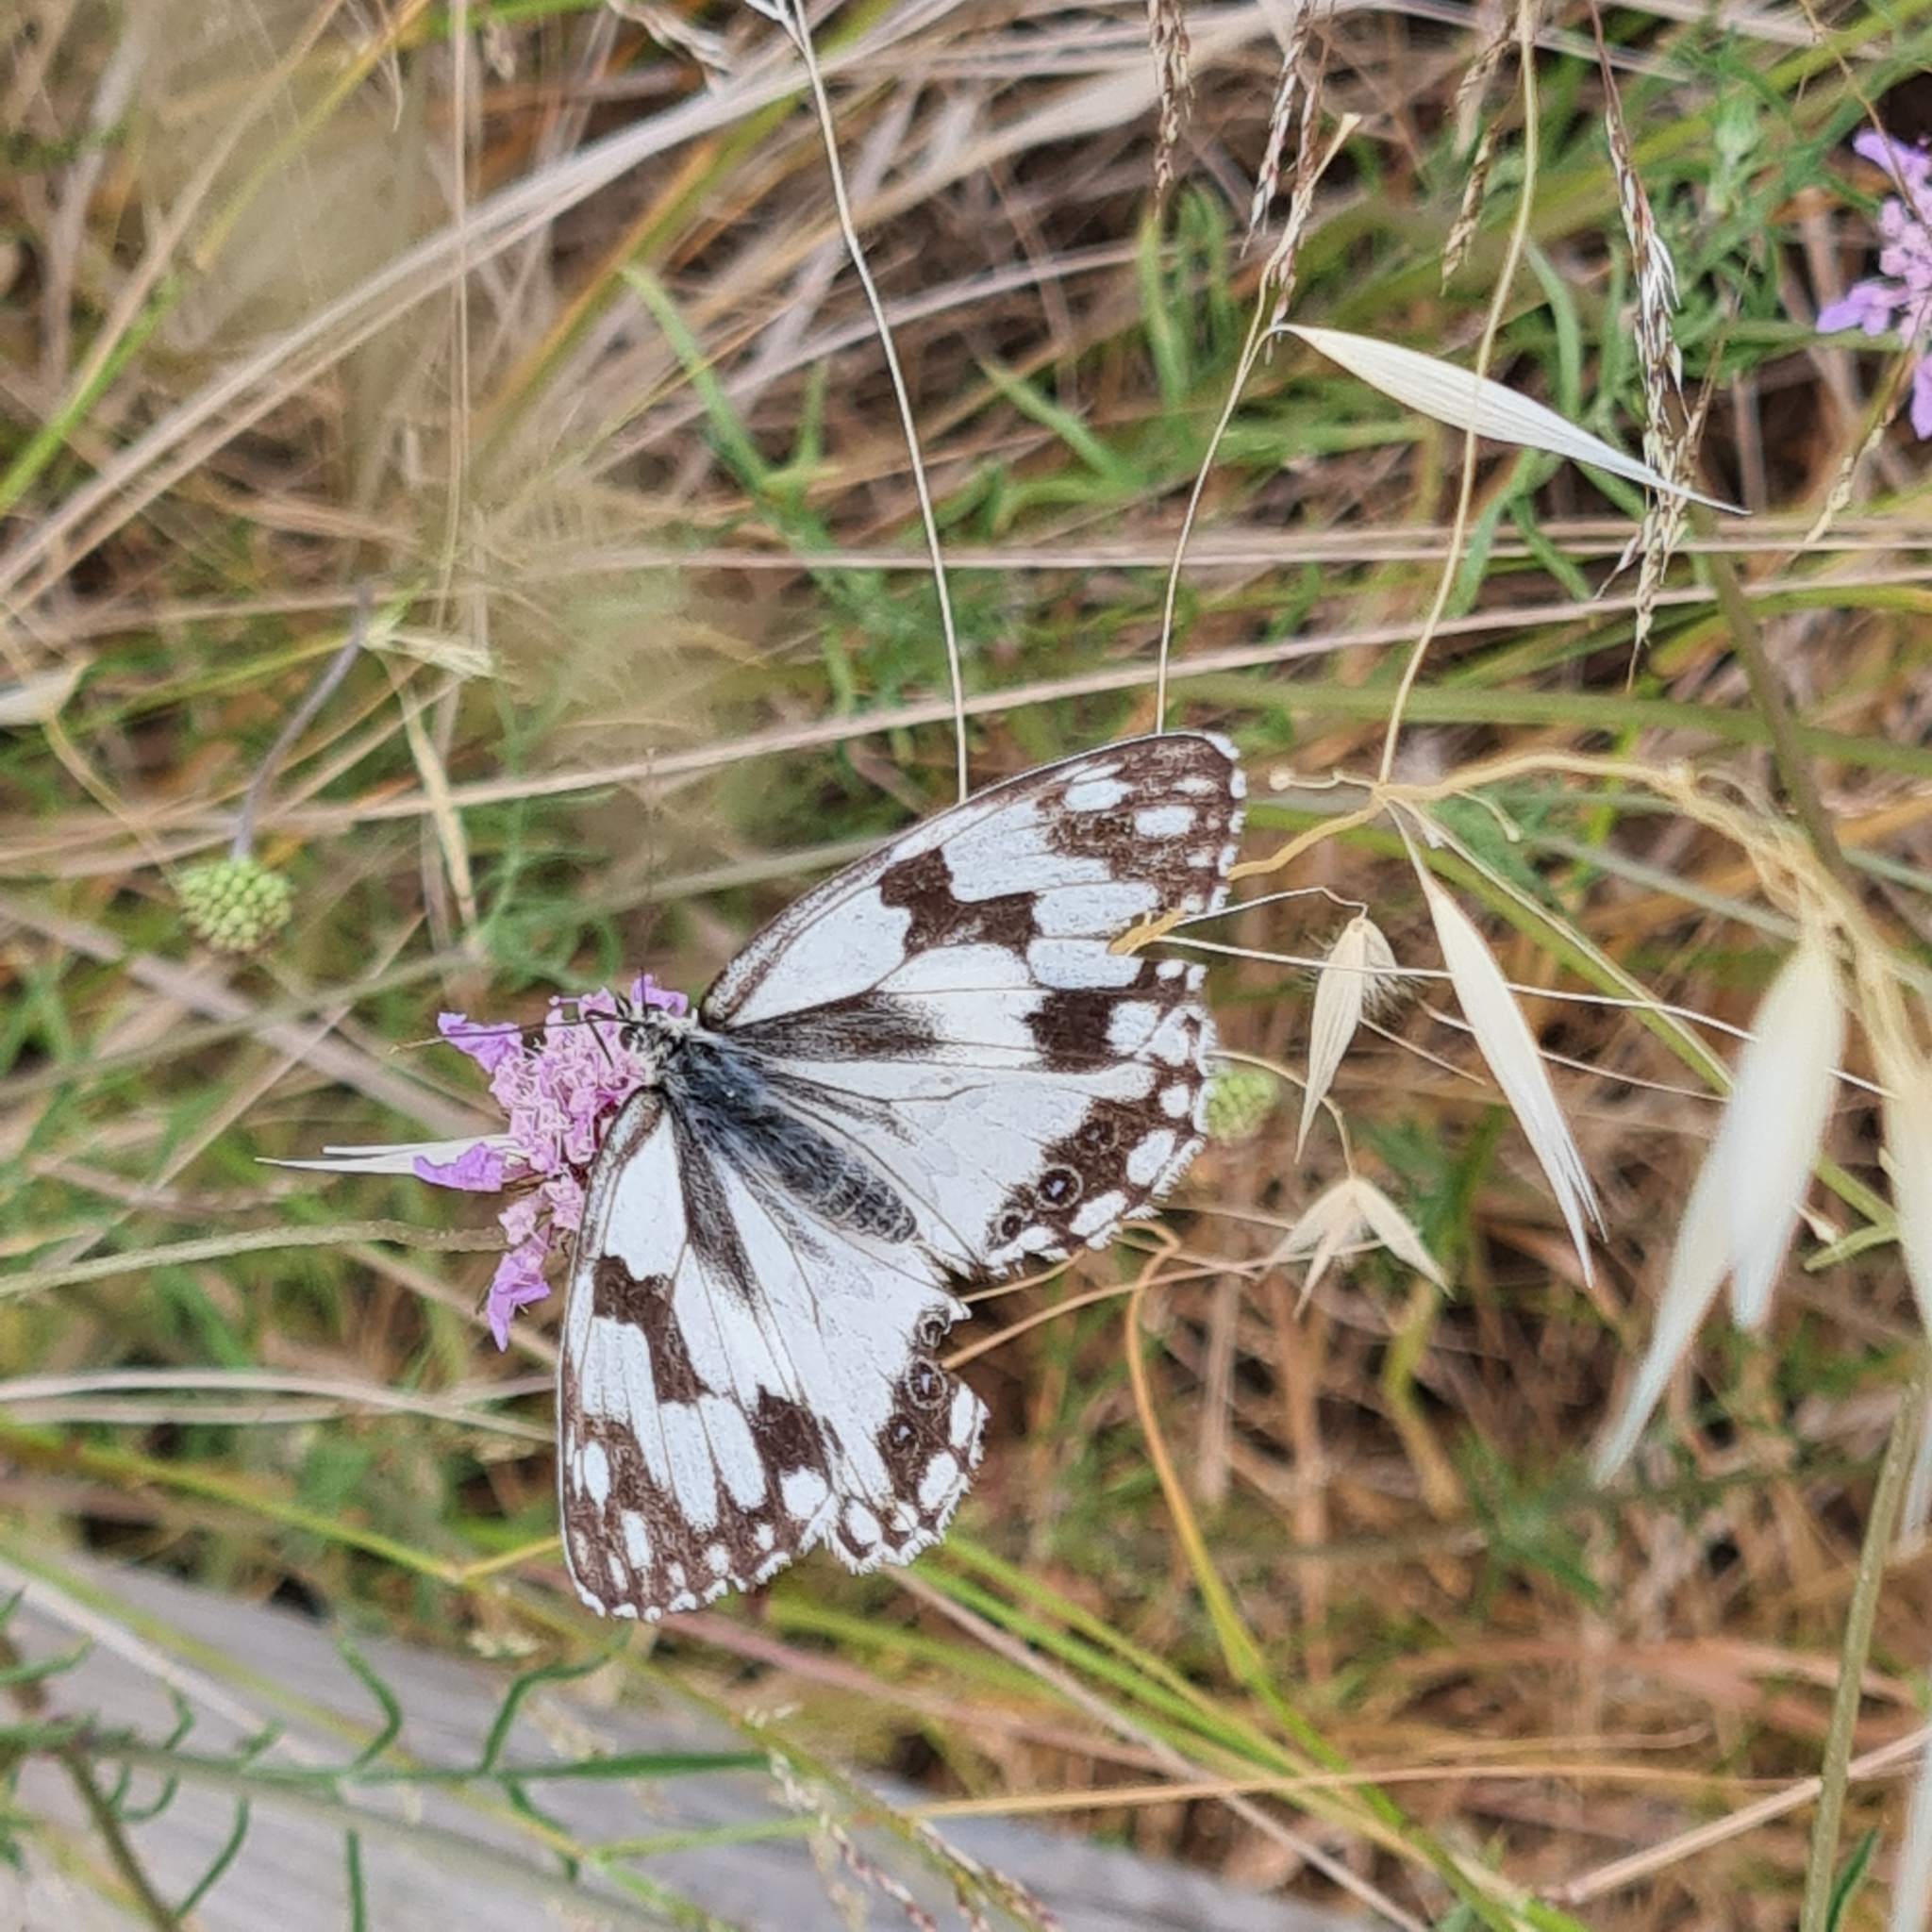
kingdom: Animalia
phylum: Arthropoda
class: Insecta
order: Lepidoptera
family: Nymphalidae
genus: Melanargia
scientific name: Melanargia lachesis
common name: Iberian marbled white
